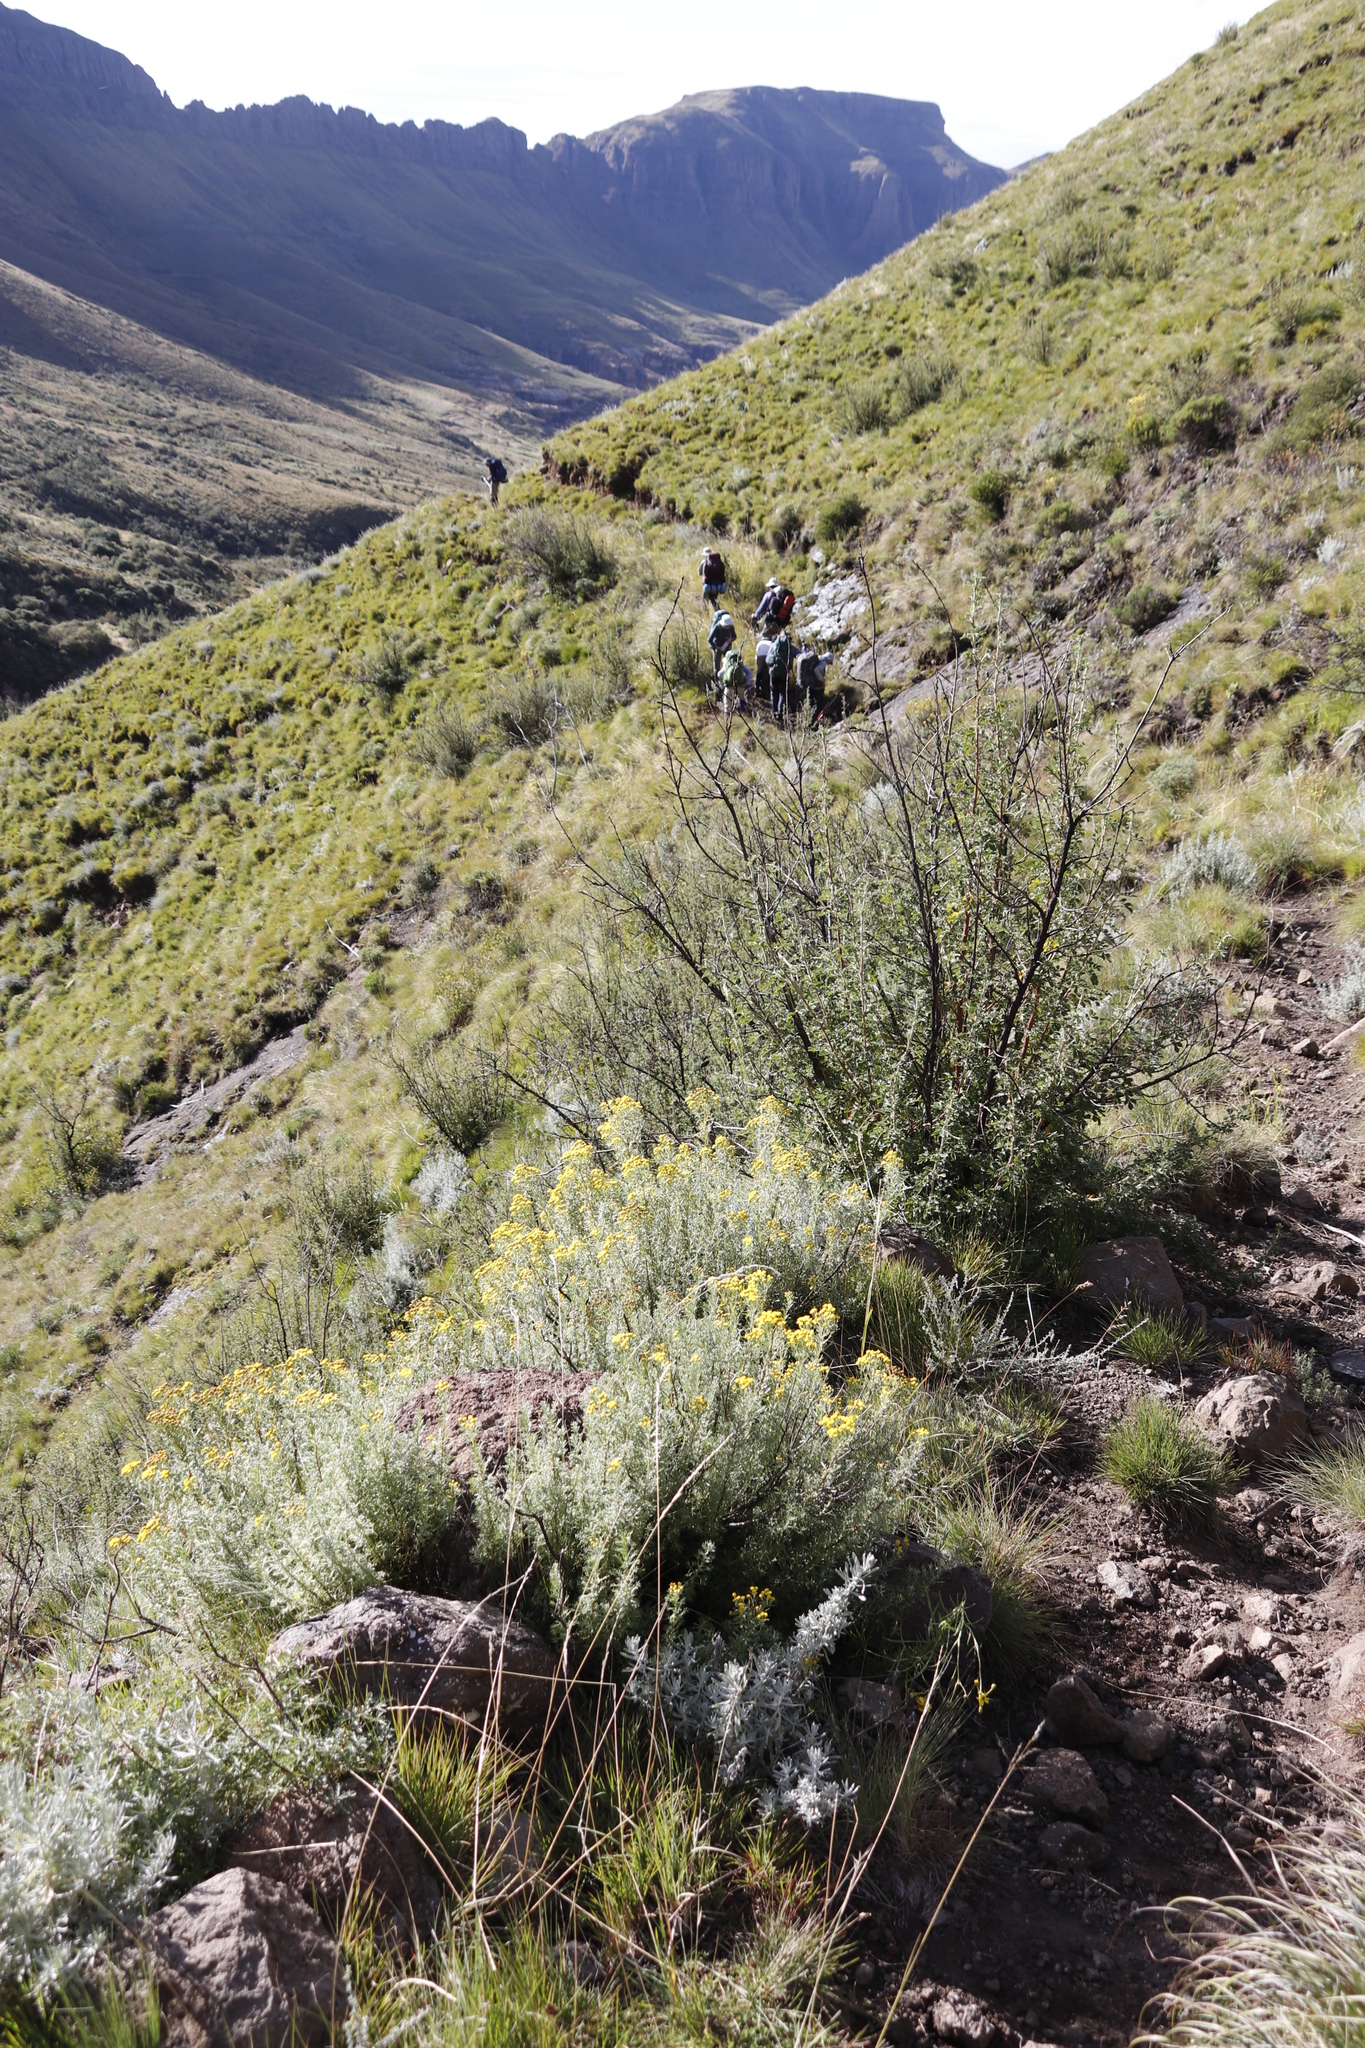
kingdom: Plantae
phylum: Tracheophyta
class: Magnoliopsida
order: Rosales
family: Rosaceae
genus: Leucosidea
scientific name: Leucosidea sericea
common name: Oldwood
